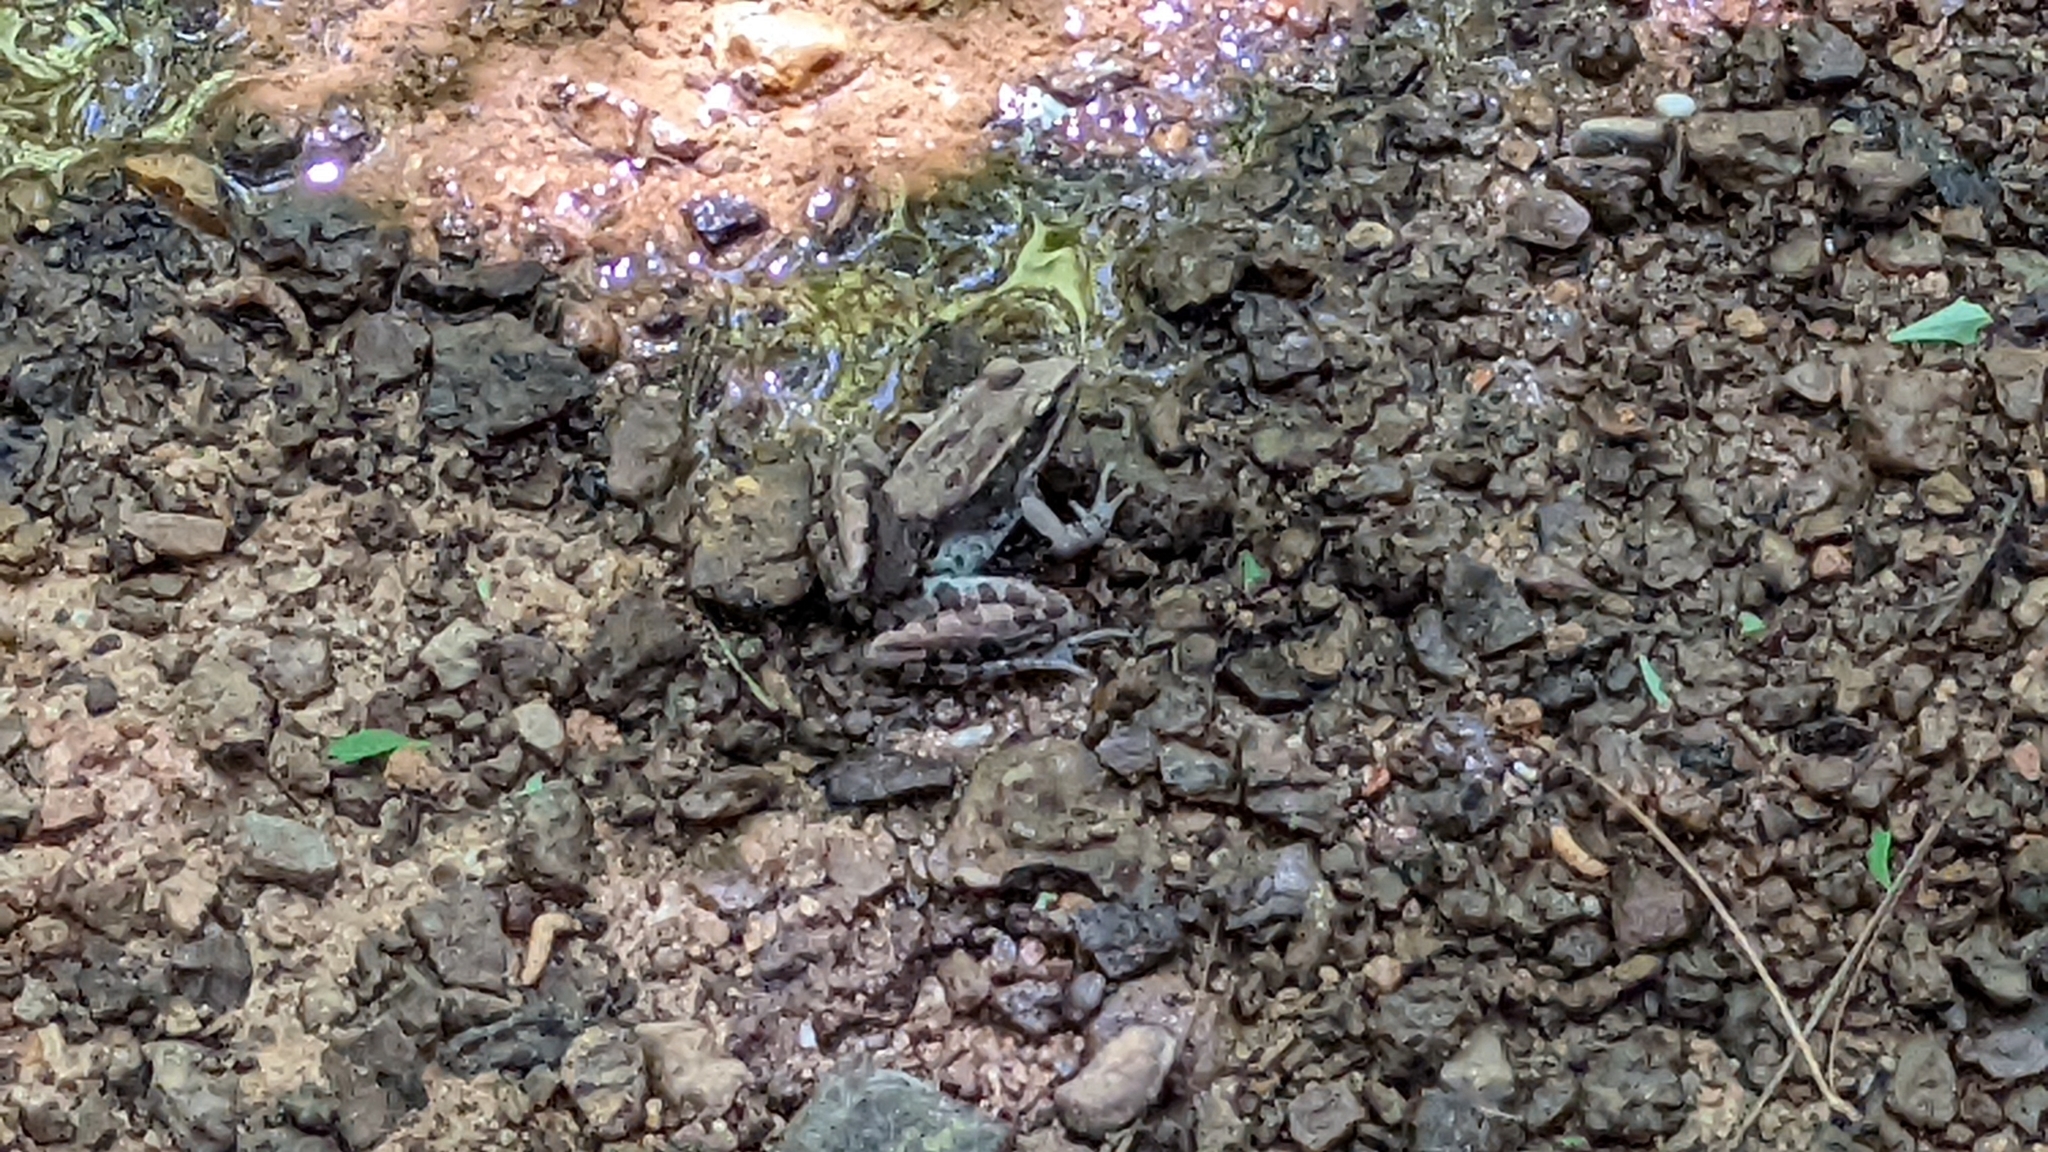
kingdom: Animalia
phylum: Chordata
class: Amphibia
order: Anura
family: Ranidae
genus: Lithobates
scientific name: Lithobates sphenocephalus
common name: Southern leopard frog
